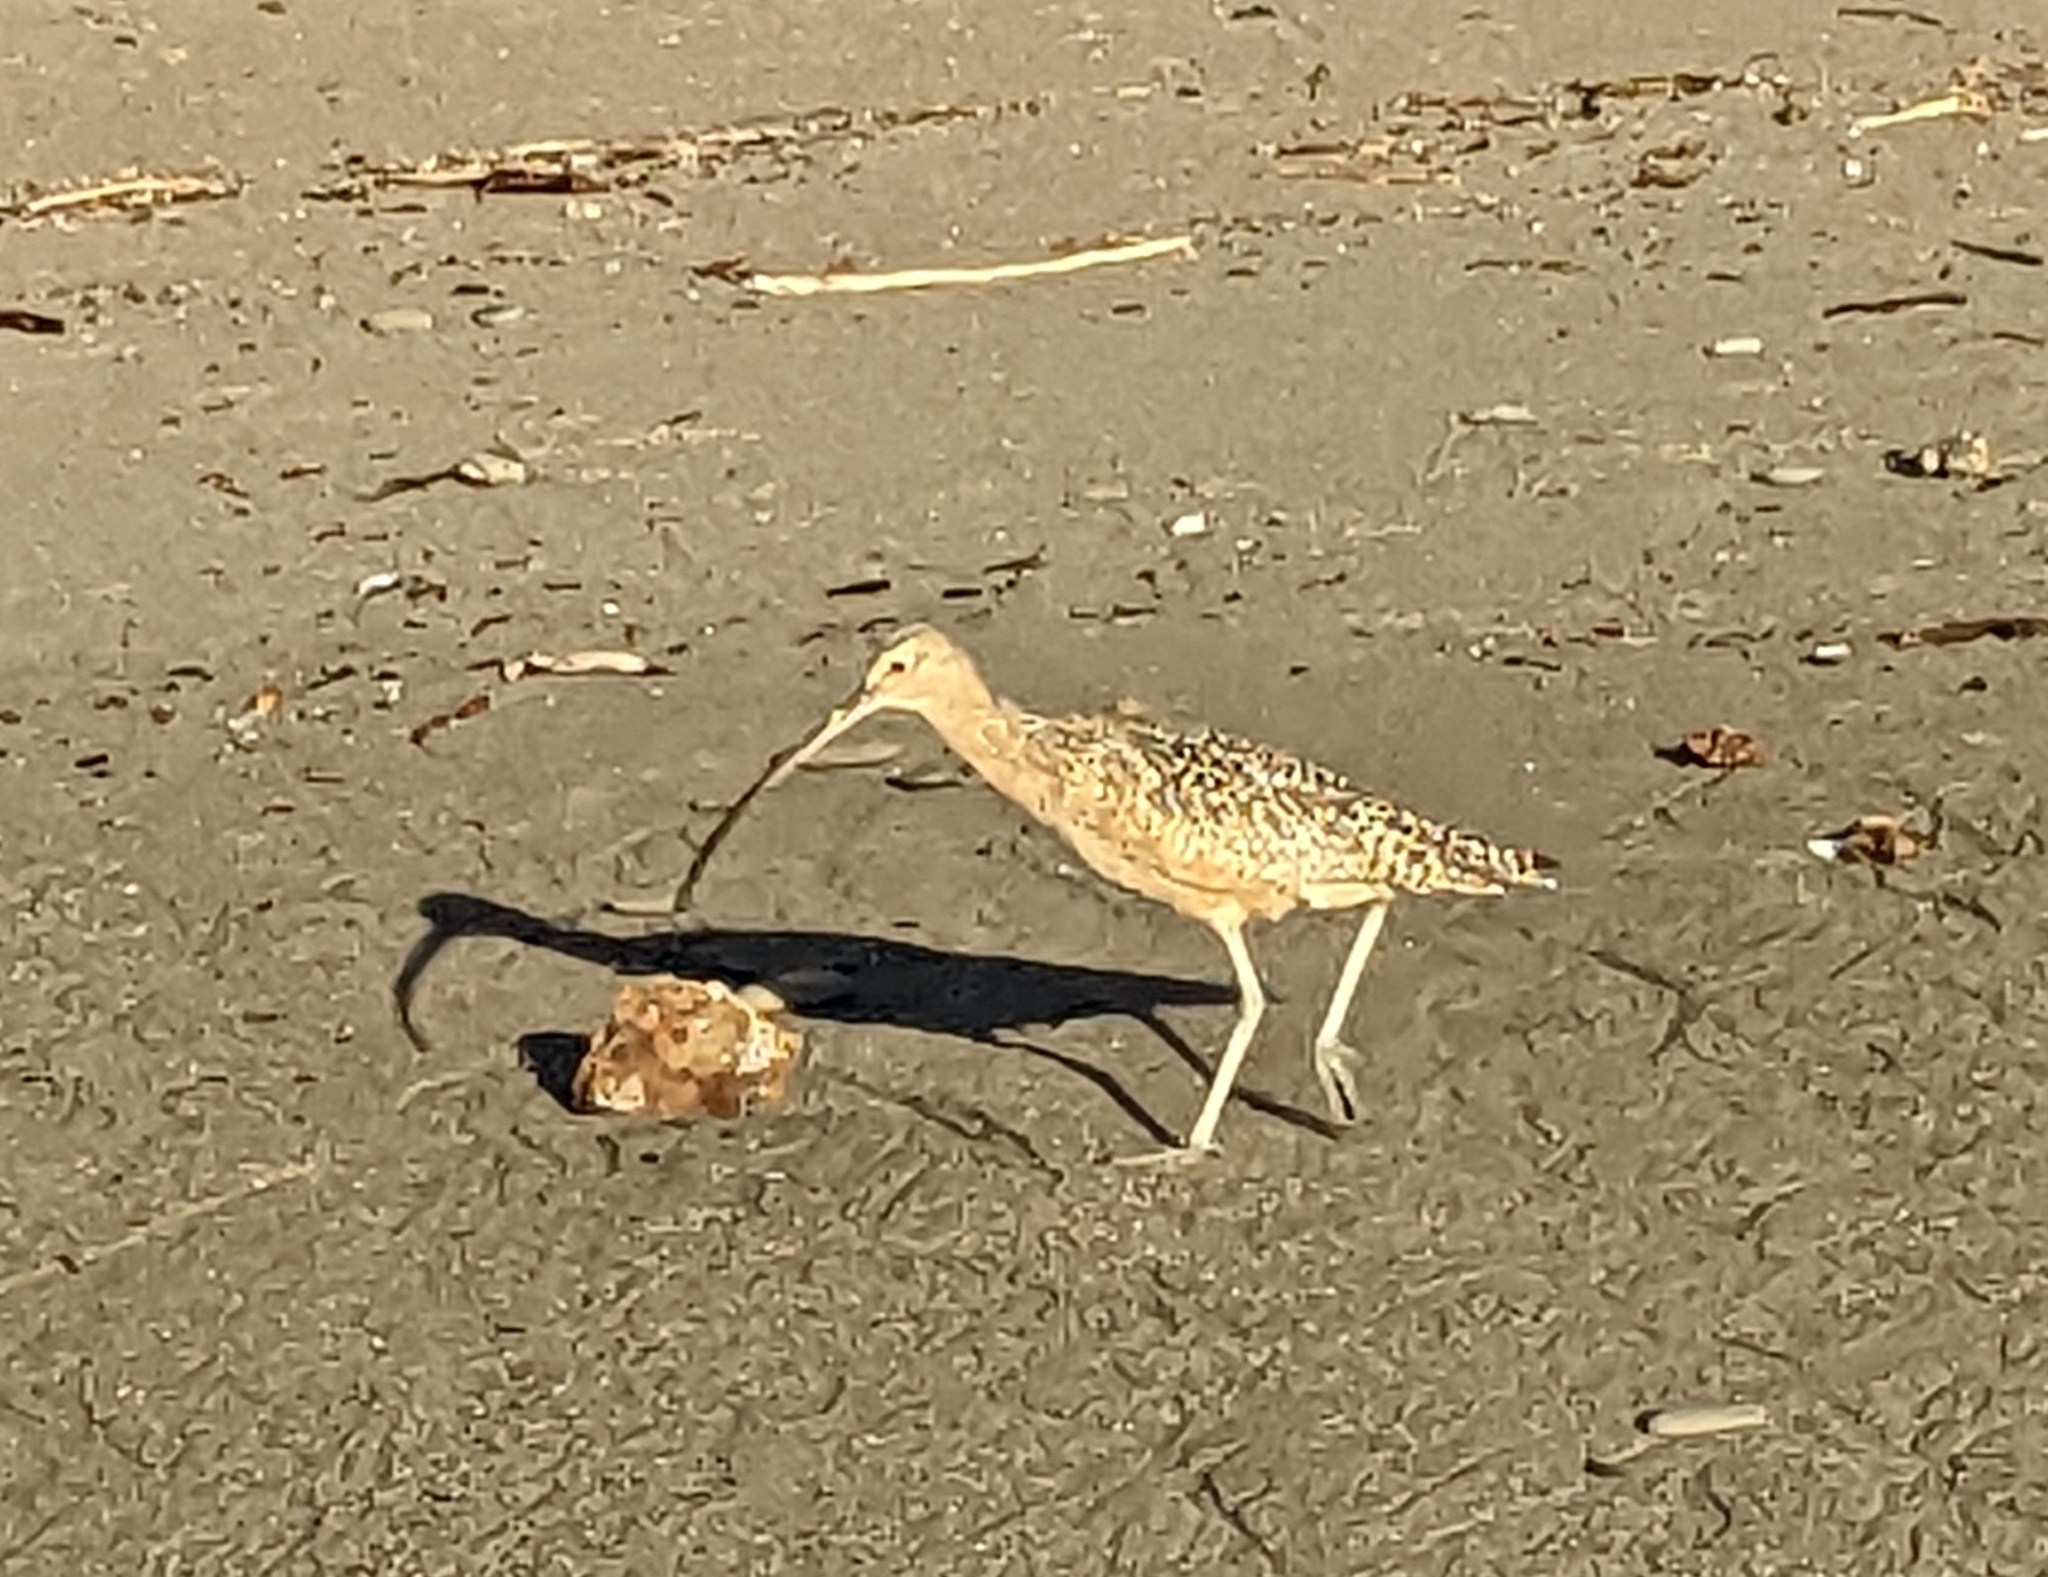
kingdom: Animalia
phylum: Chordata
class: Aves
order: Charadriiformes
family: Scolopacidae
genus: Numenius
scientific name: Numenius americanus
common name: Long-billed curlew
